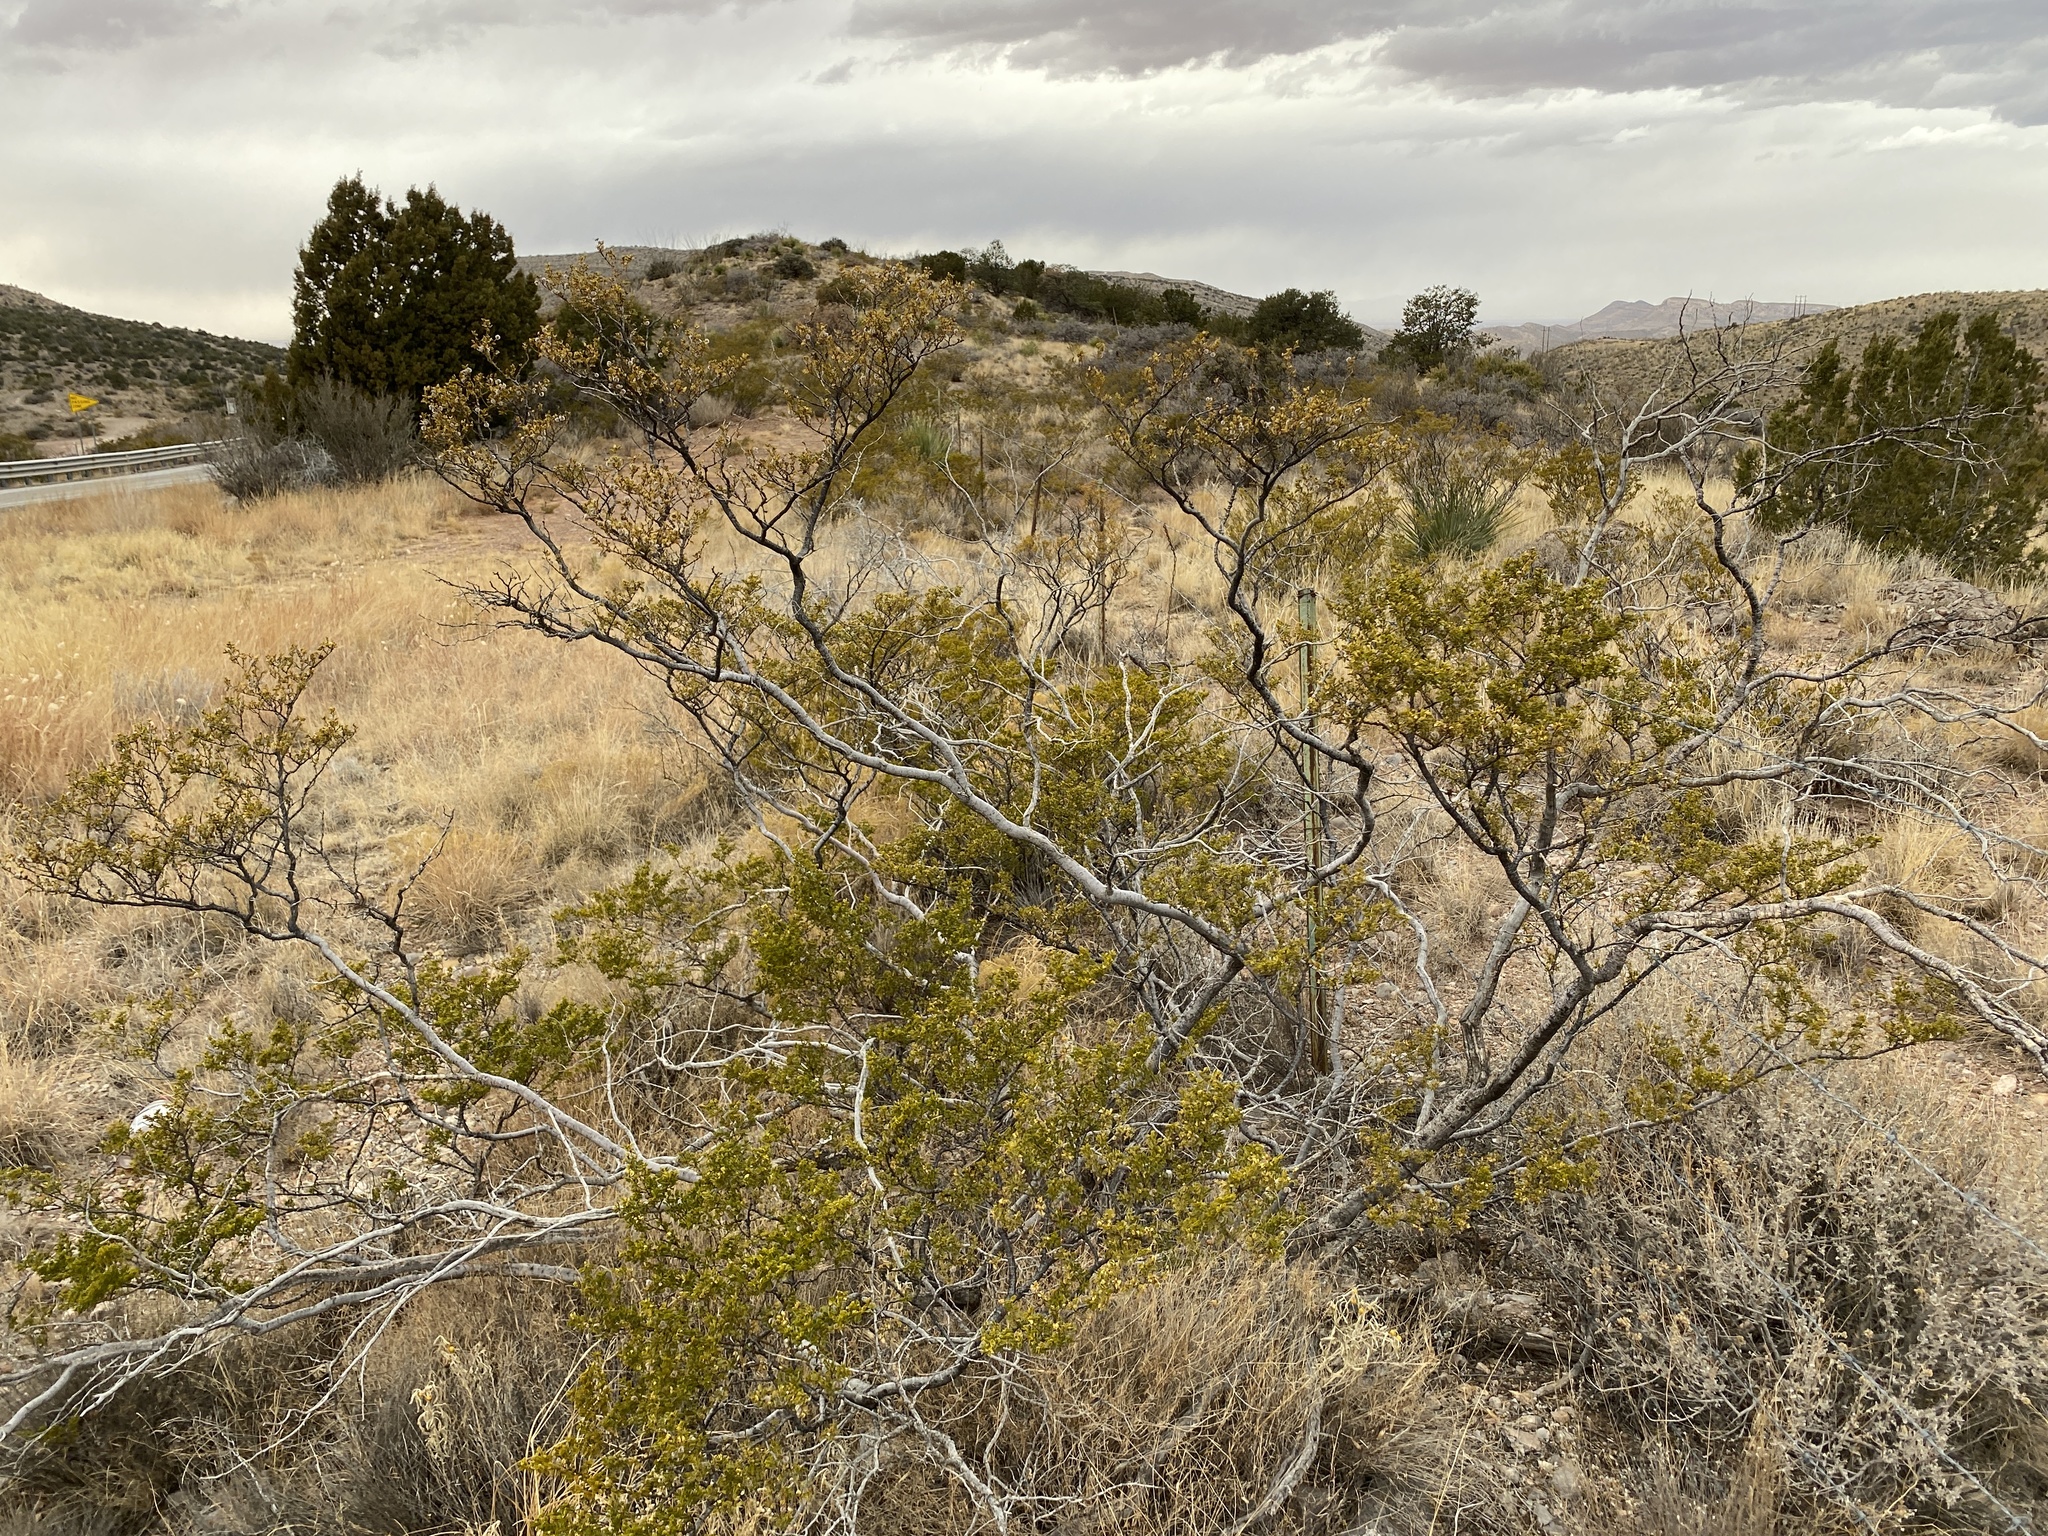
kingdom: Plantae
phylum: Tracheophyta
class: Magnoliopsida
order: Zygophyllales
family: Zygophyllaceae
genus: Larrea
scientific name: Larrea tridentata
